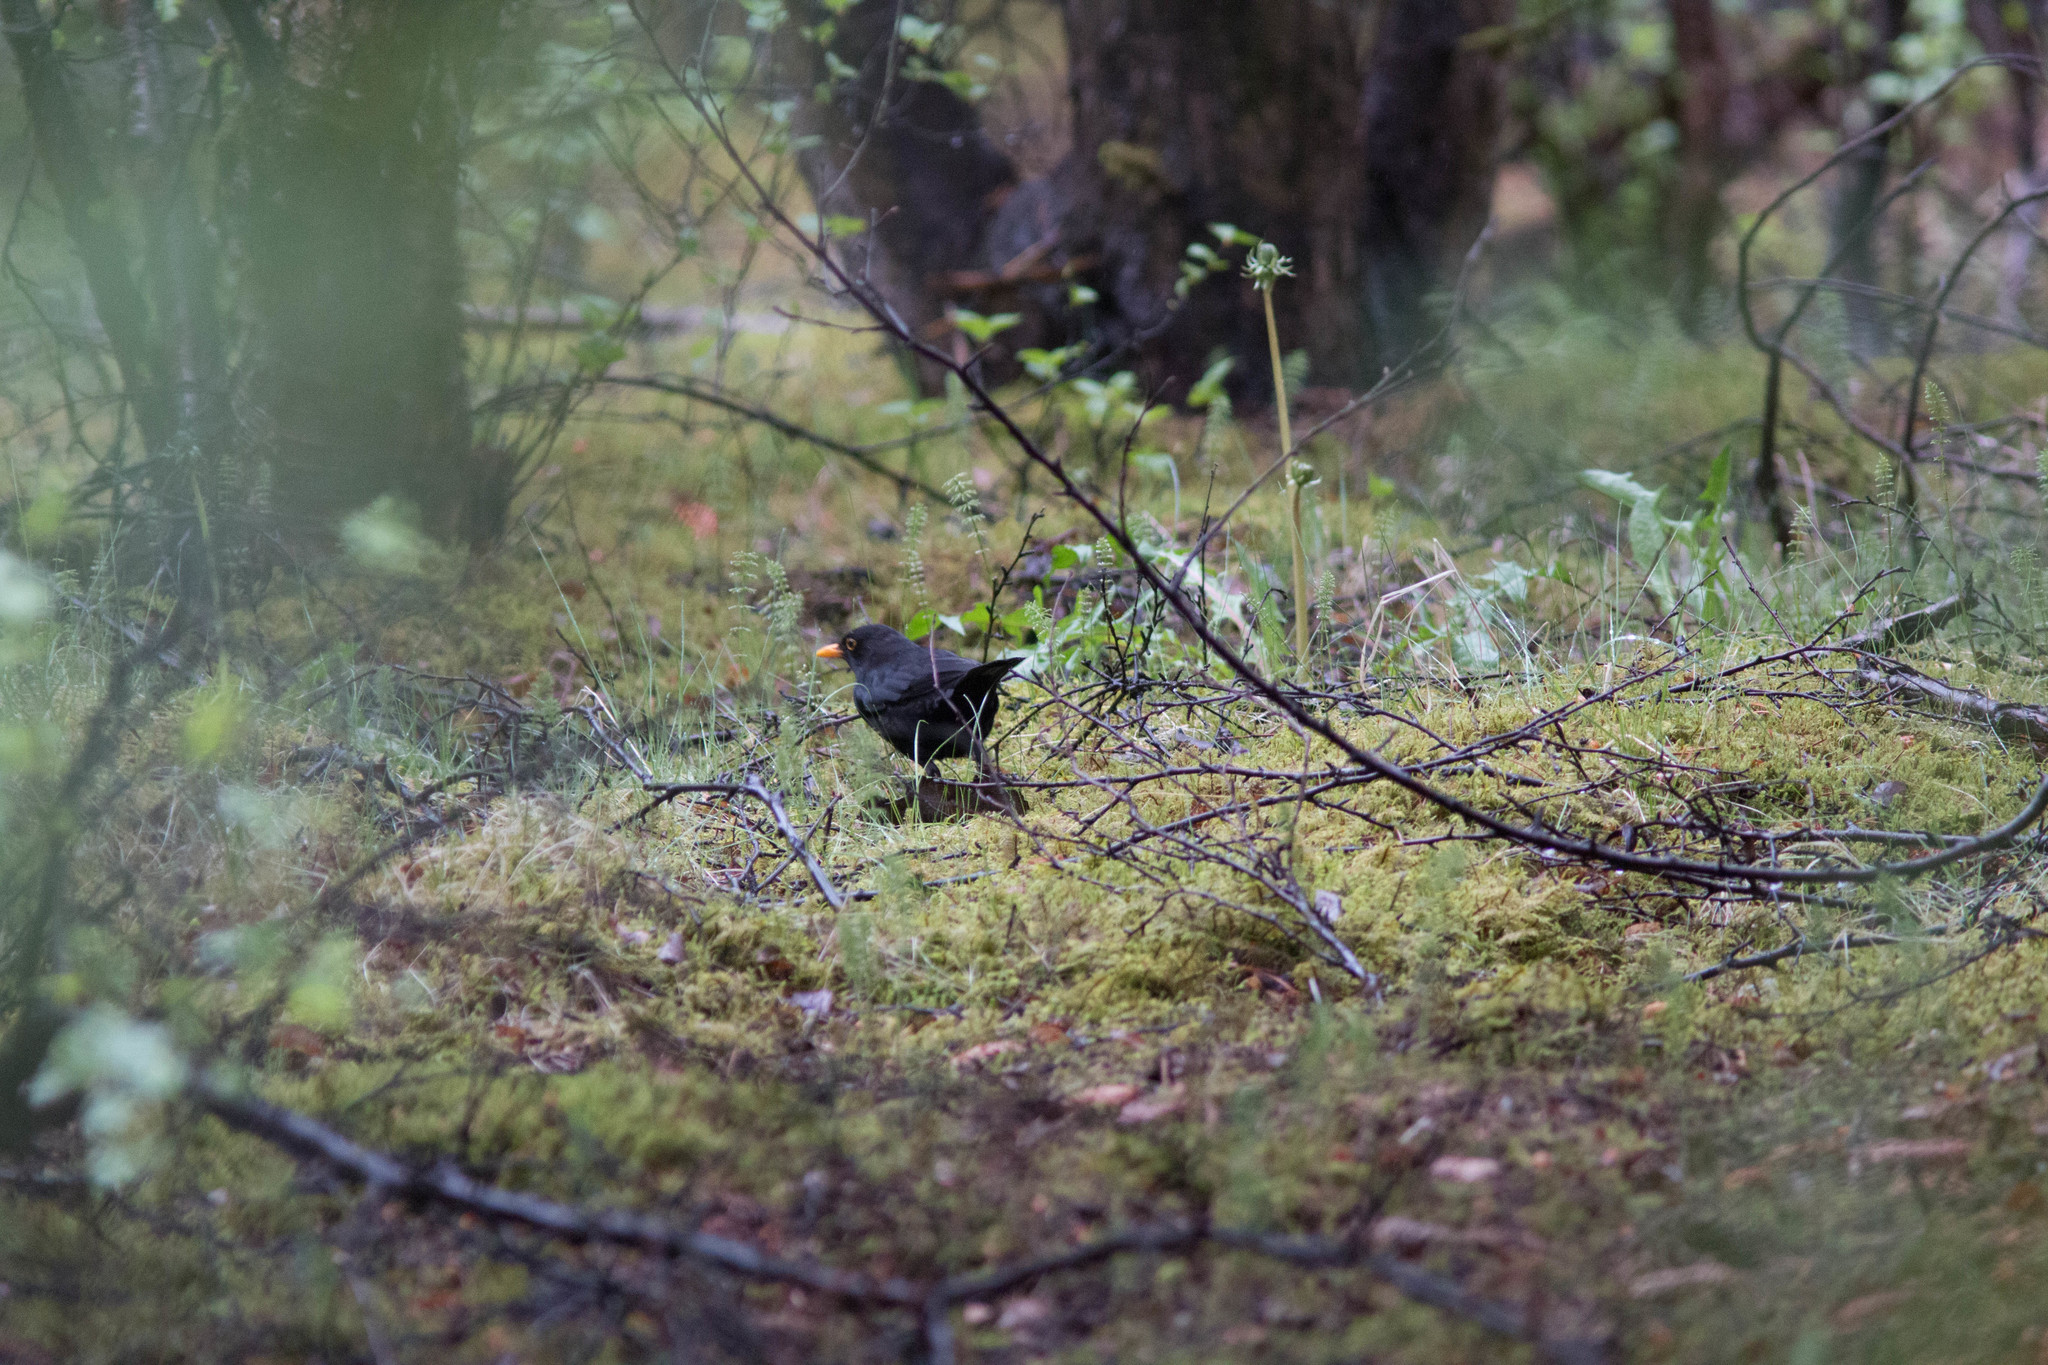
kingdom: Animalia
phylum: Chordata
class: Aves
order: Passeriformes
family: Turdidae
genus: Turdus
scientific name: Turdus merula
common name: Common blackbird
